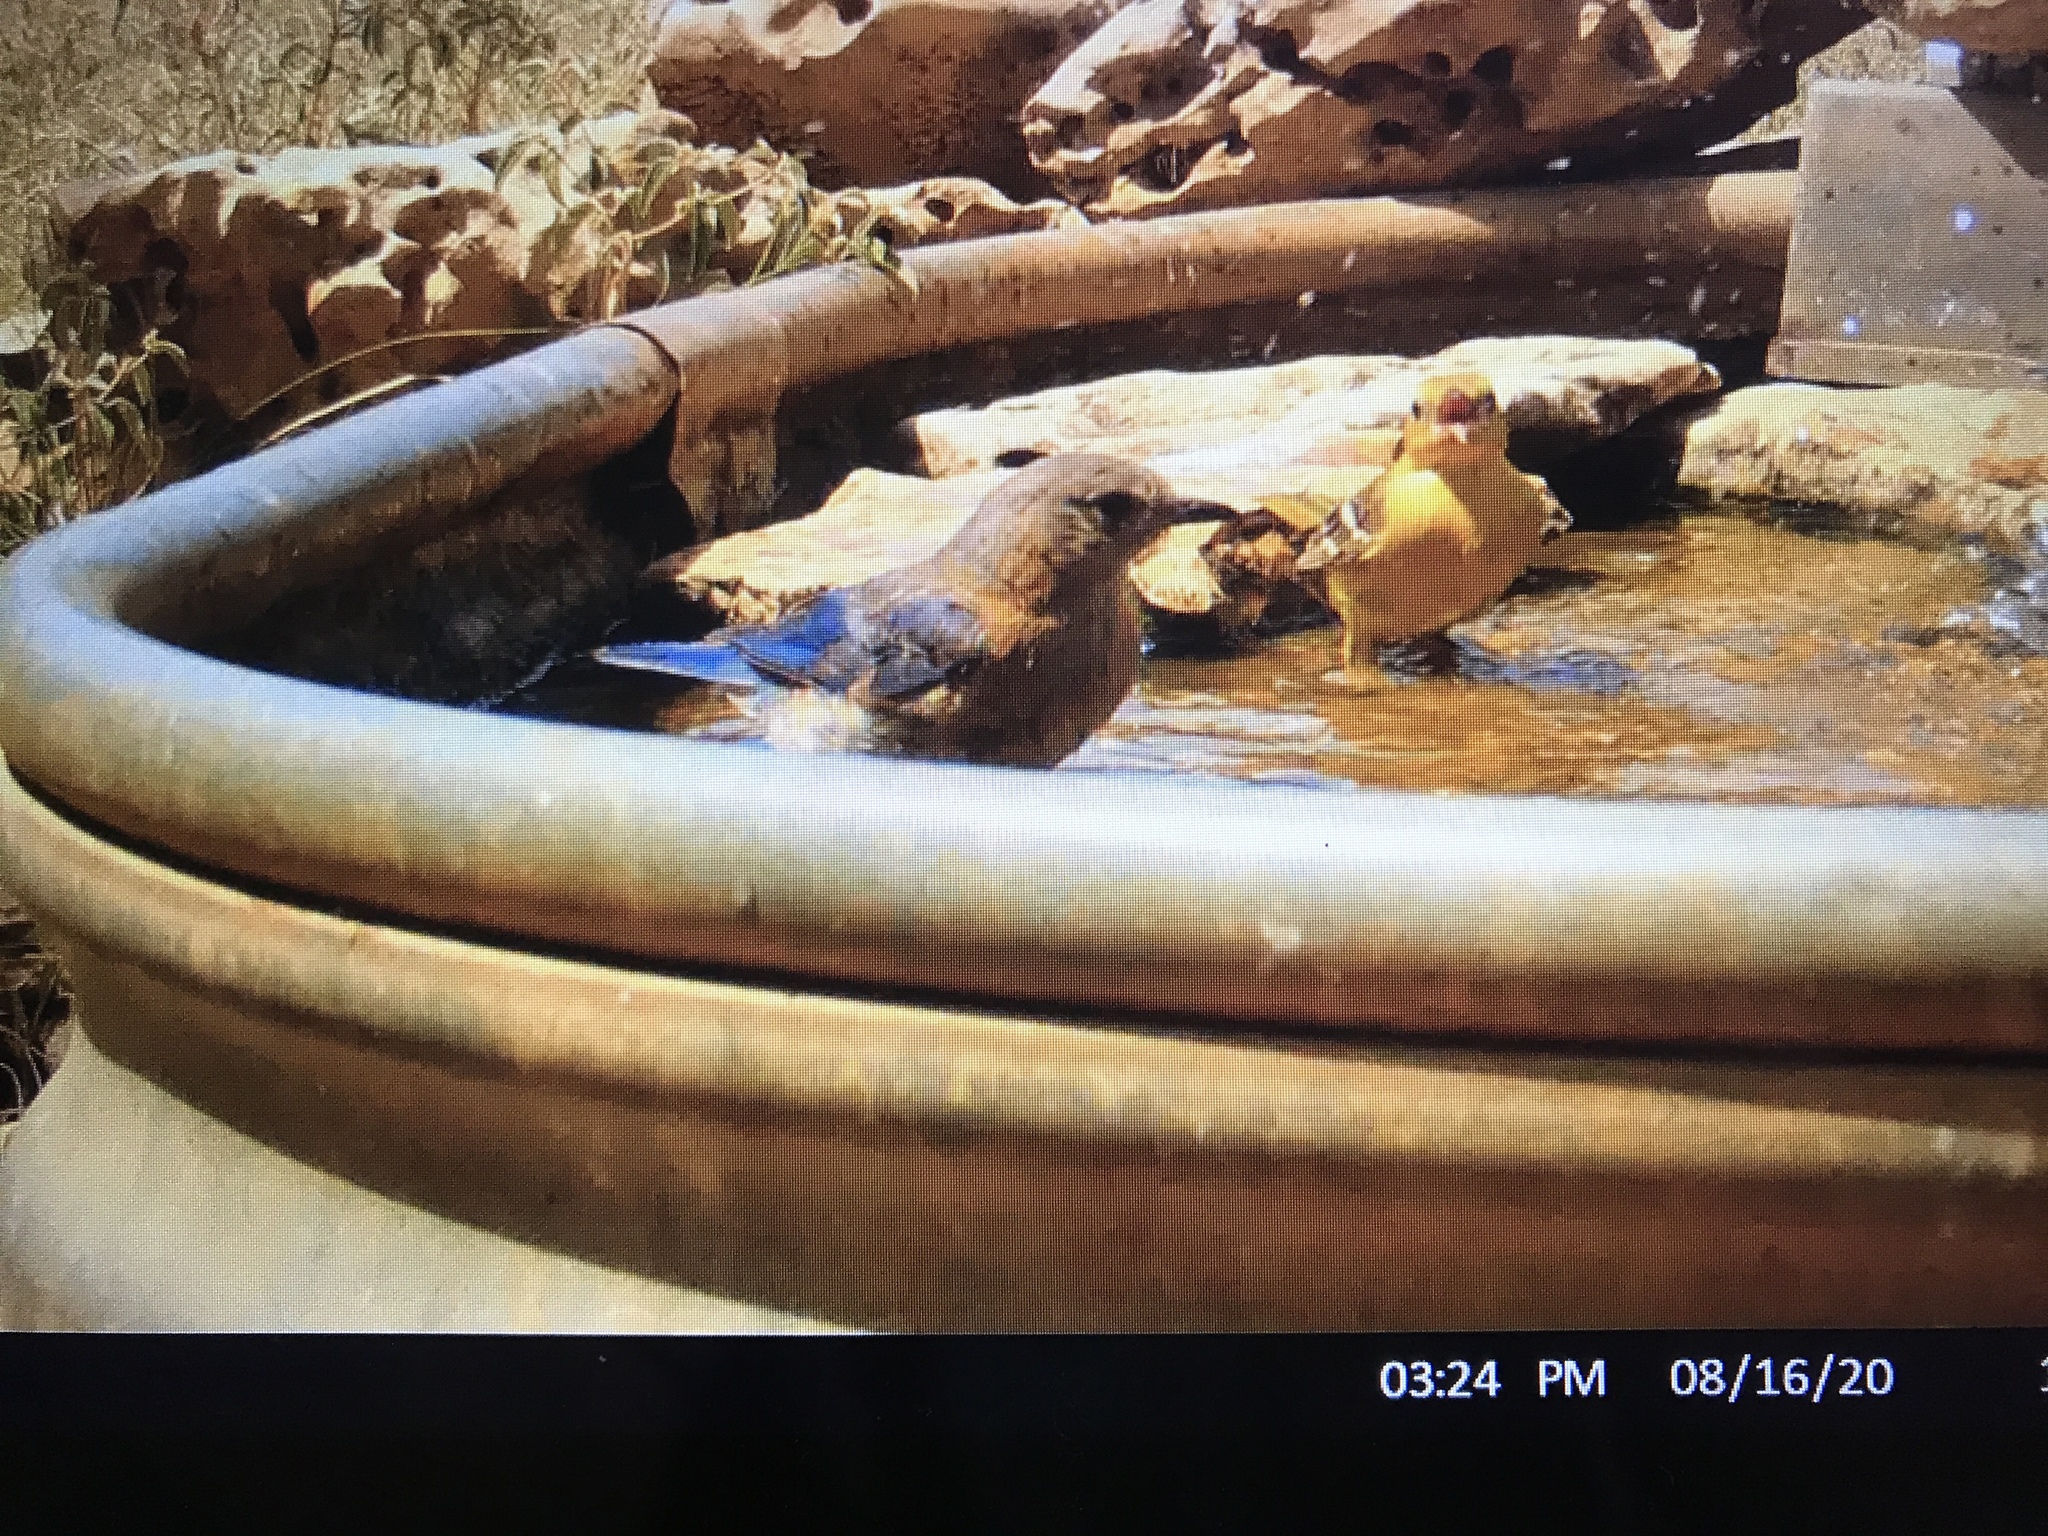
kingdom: Animalia
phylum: Chordata
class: Aves
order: Passeriformes
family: Turdidae
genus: Sialia
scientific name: Sialia sialis
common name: Eastern bluebird
